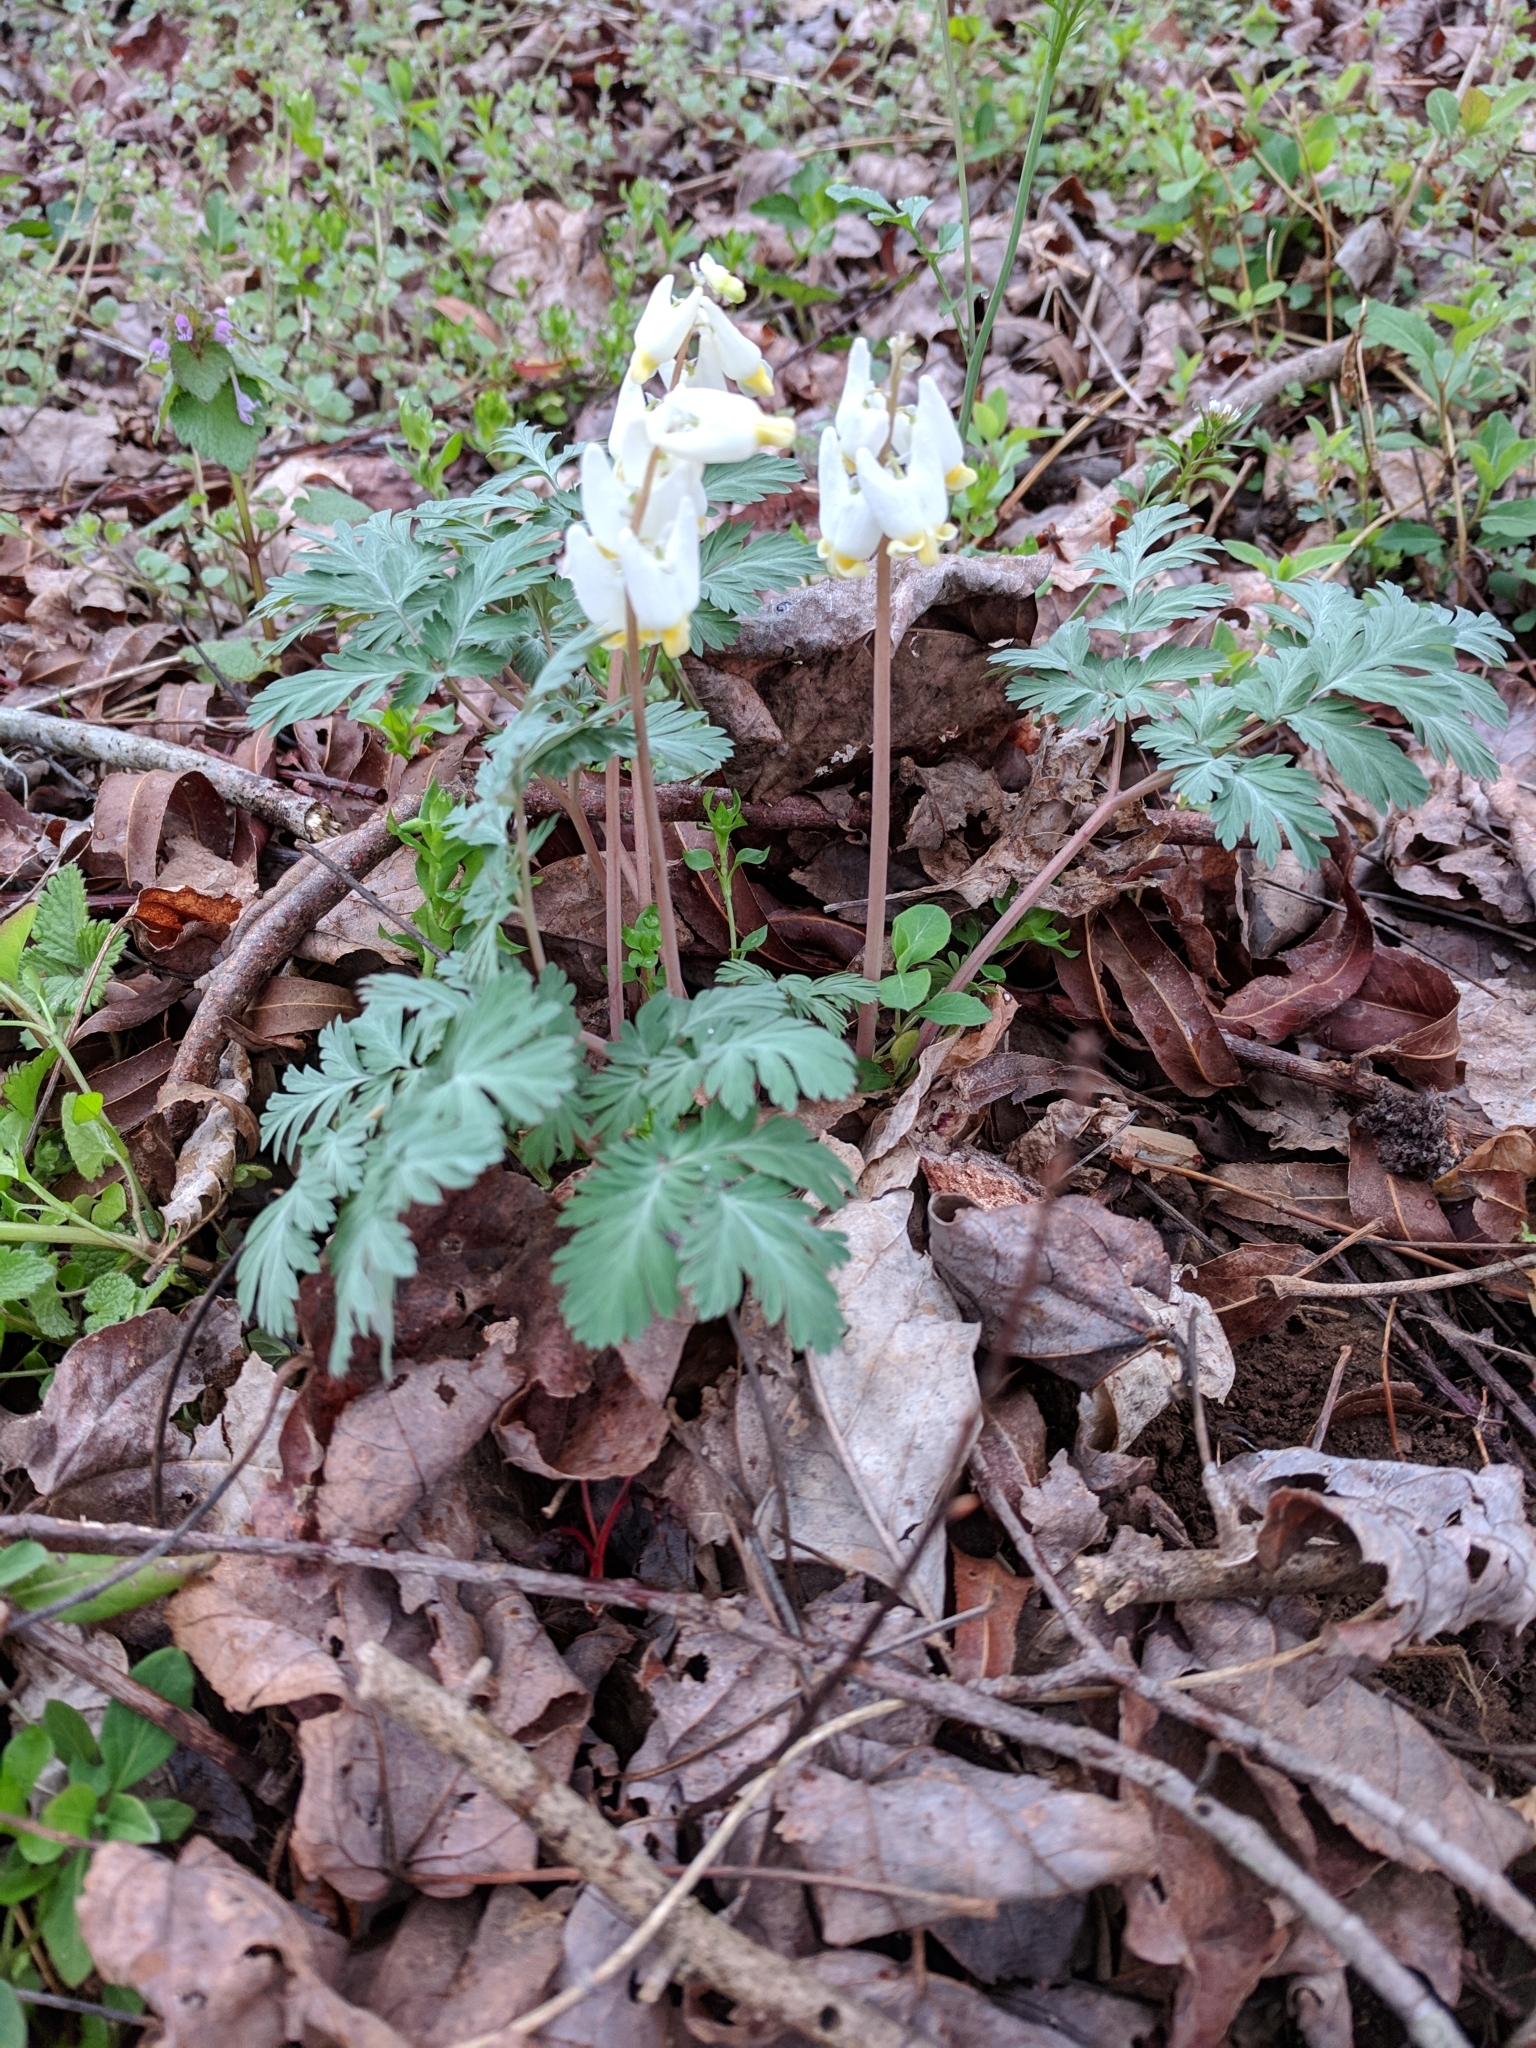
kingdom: Plantae
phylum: Tracheophyta
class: Magnoliopsida
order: Ranunculales
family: Papaveraceae
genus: Dicentra
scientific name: Dicentra cucullaria
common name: Dutchman's breeches
